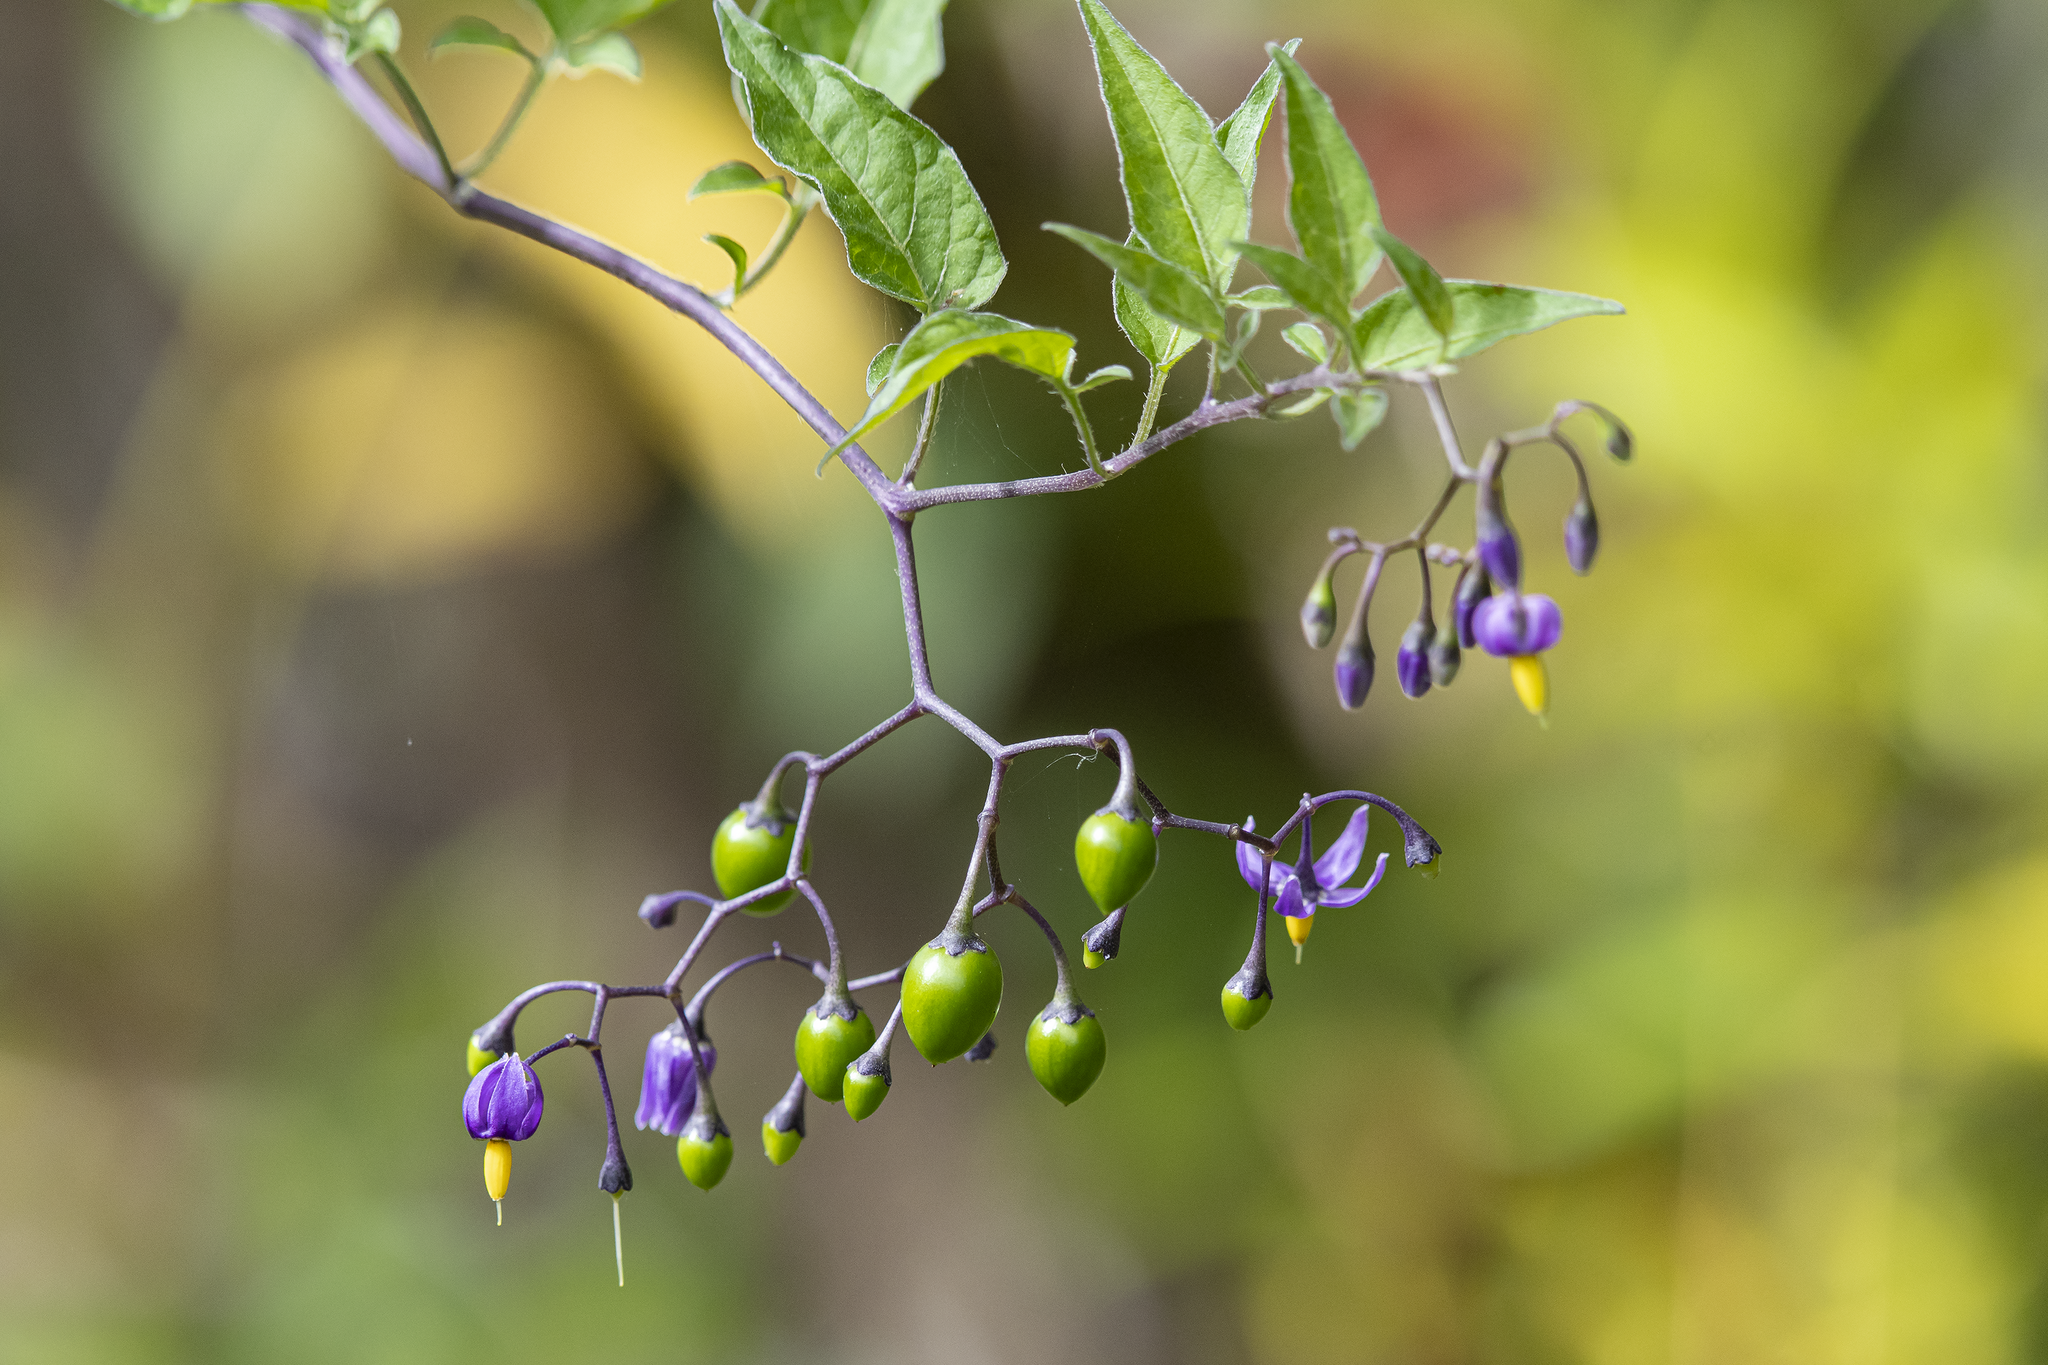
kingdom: Plantae
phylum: Tracheophyta
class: Magnoliopsida
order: Solanales
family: Solanaceae
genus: Solanum
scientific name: Solanum dulcamara
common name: Climbing nightshade
